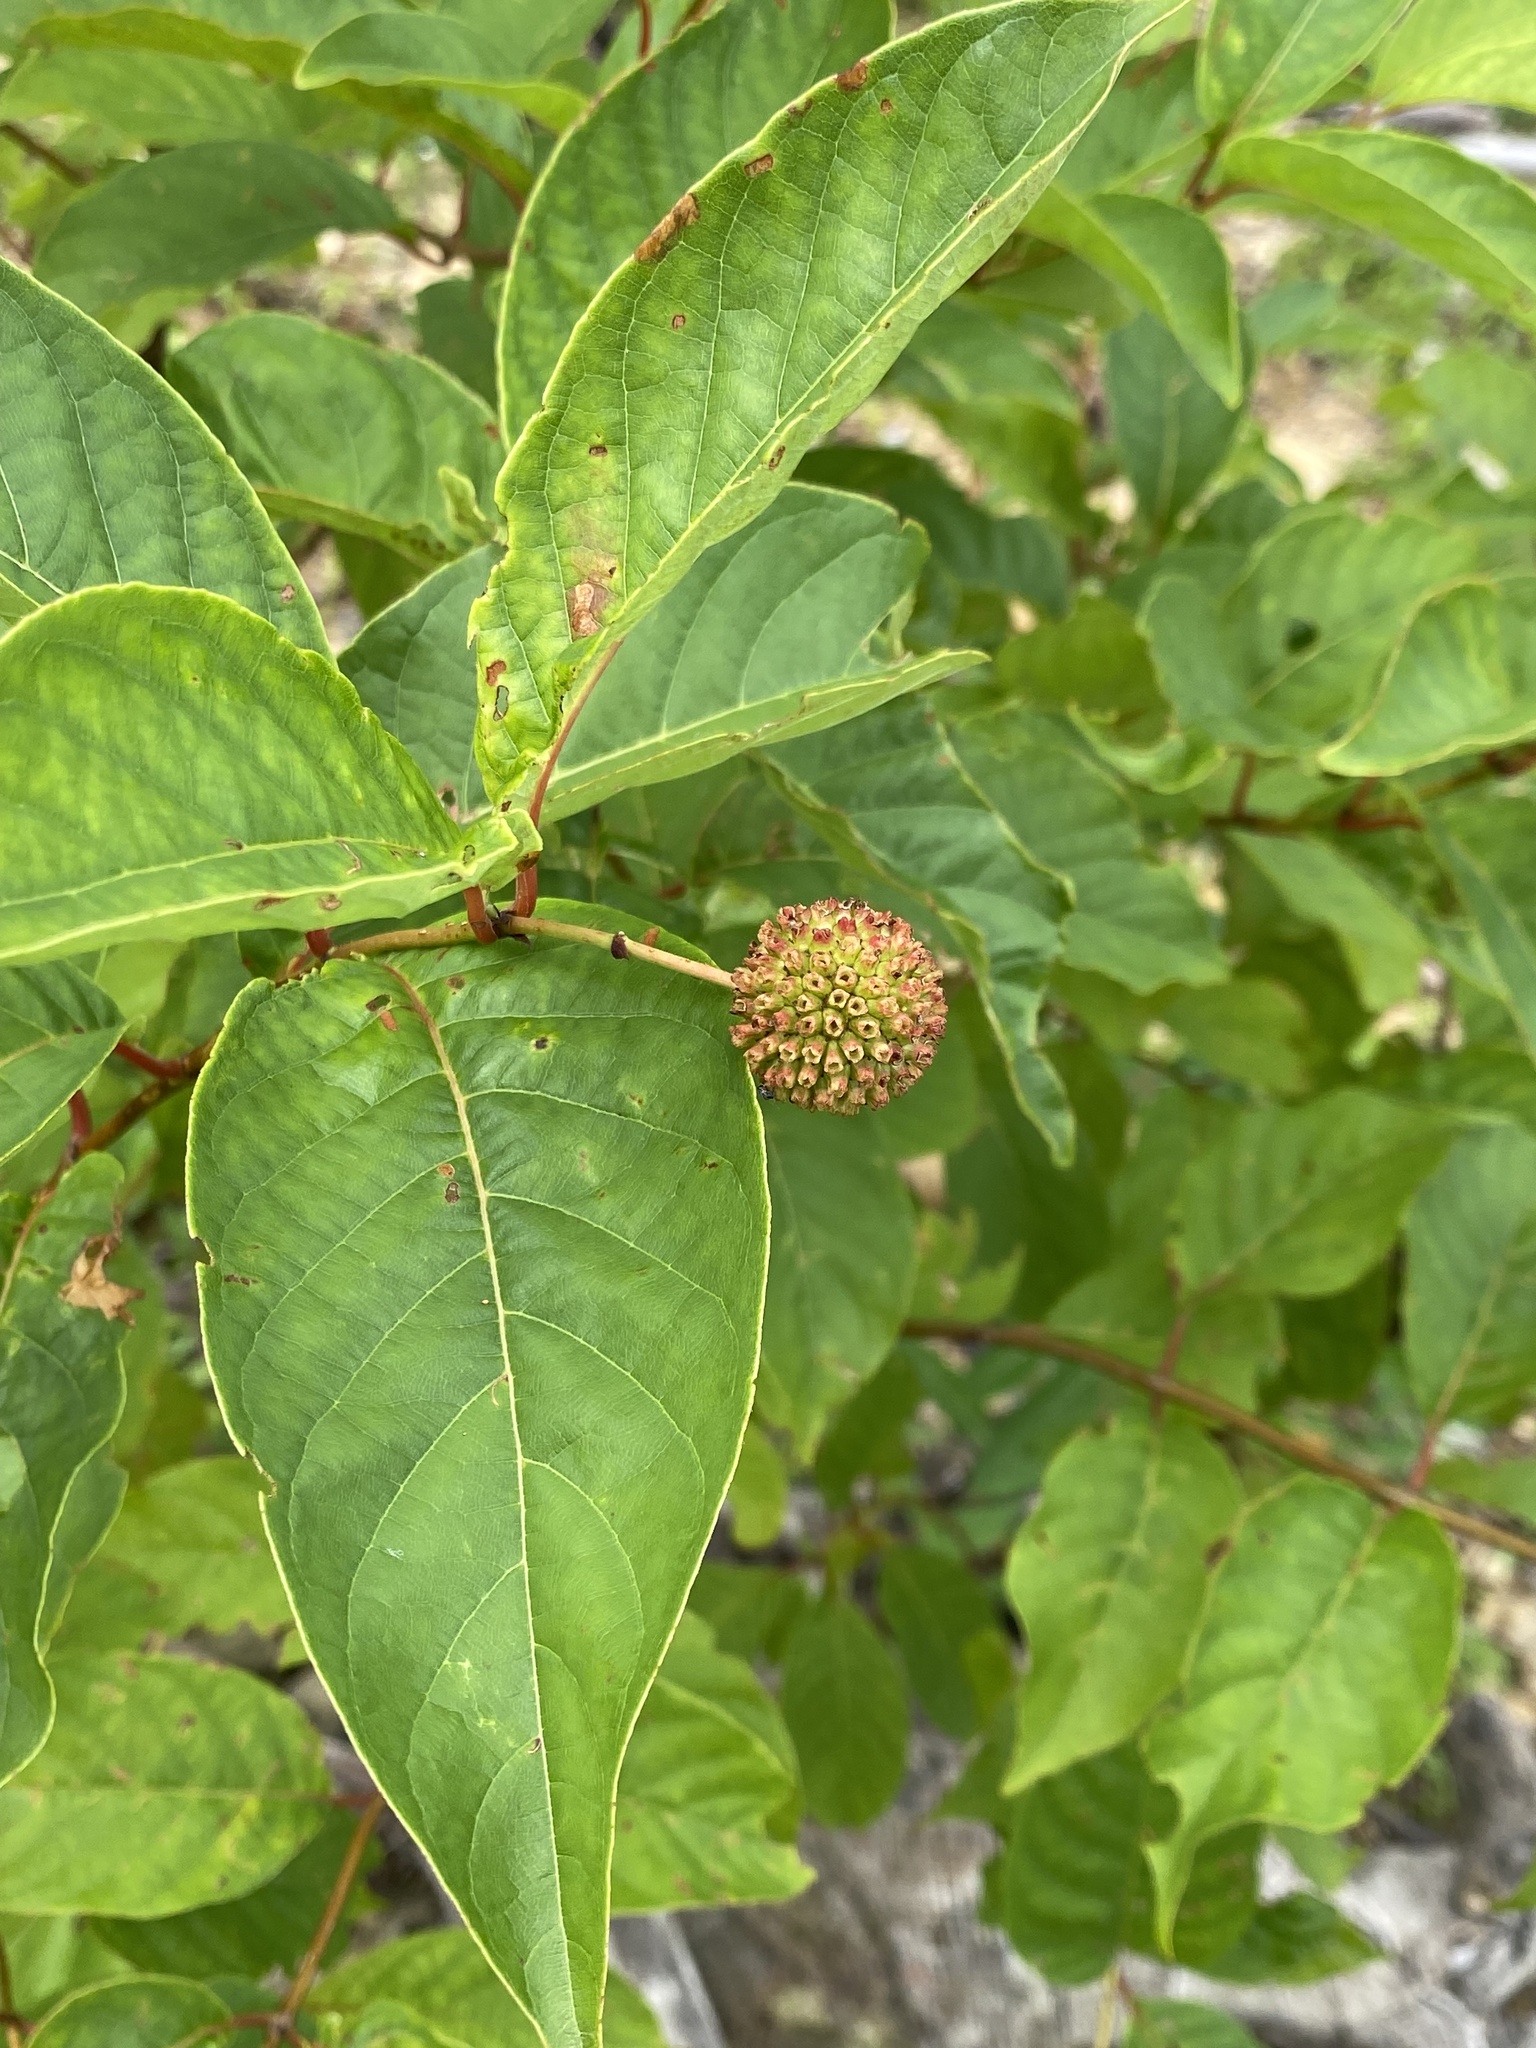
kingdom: Plantae
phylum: Tracheophyta
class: Magnoliopsida
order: Gentianales
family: Rubiaceae
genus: Cephalanthus
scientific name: Cephalanthus occidentalis
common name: Button-willow
